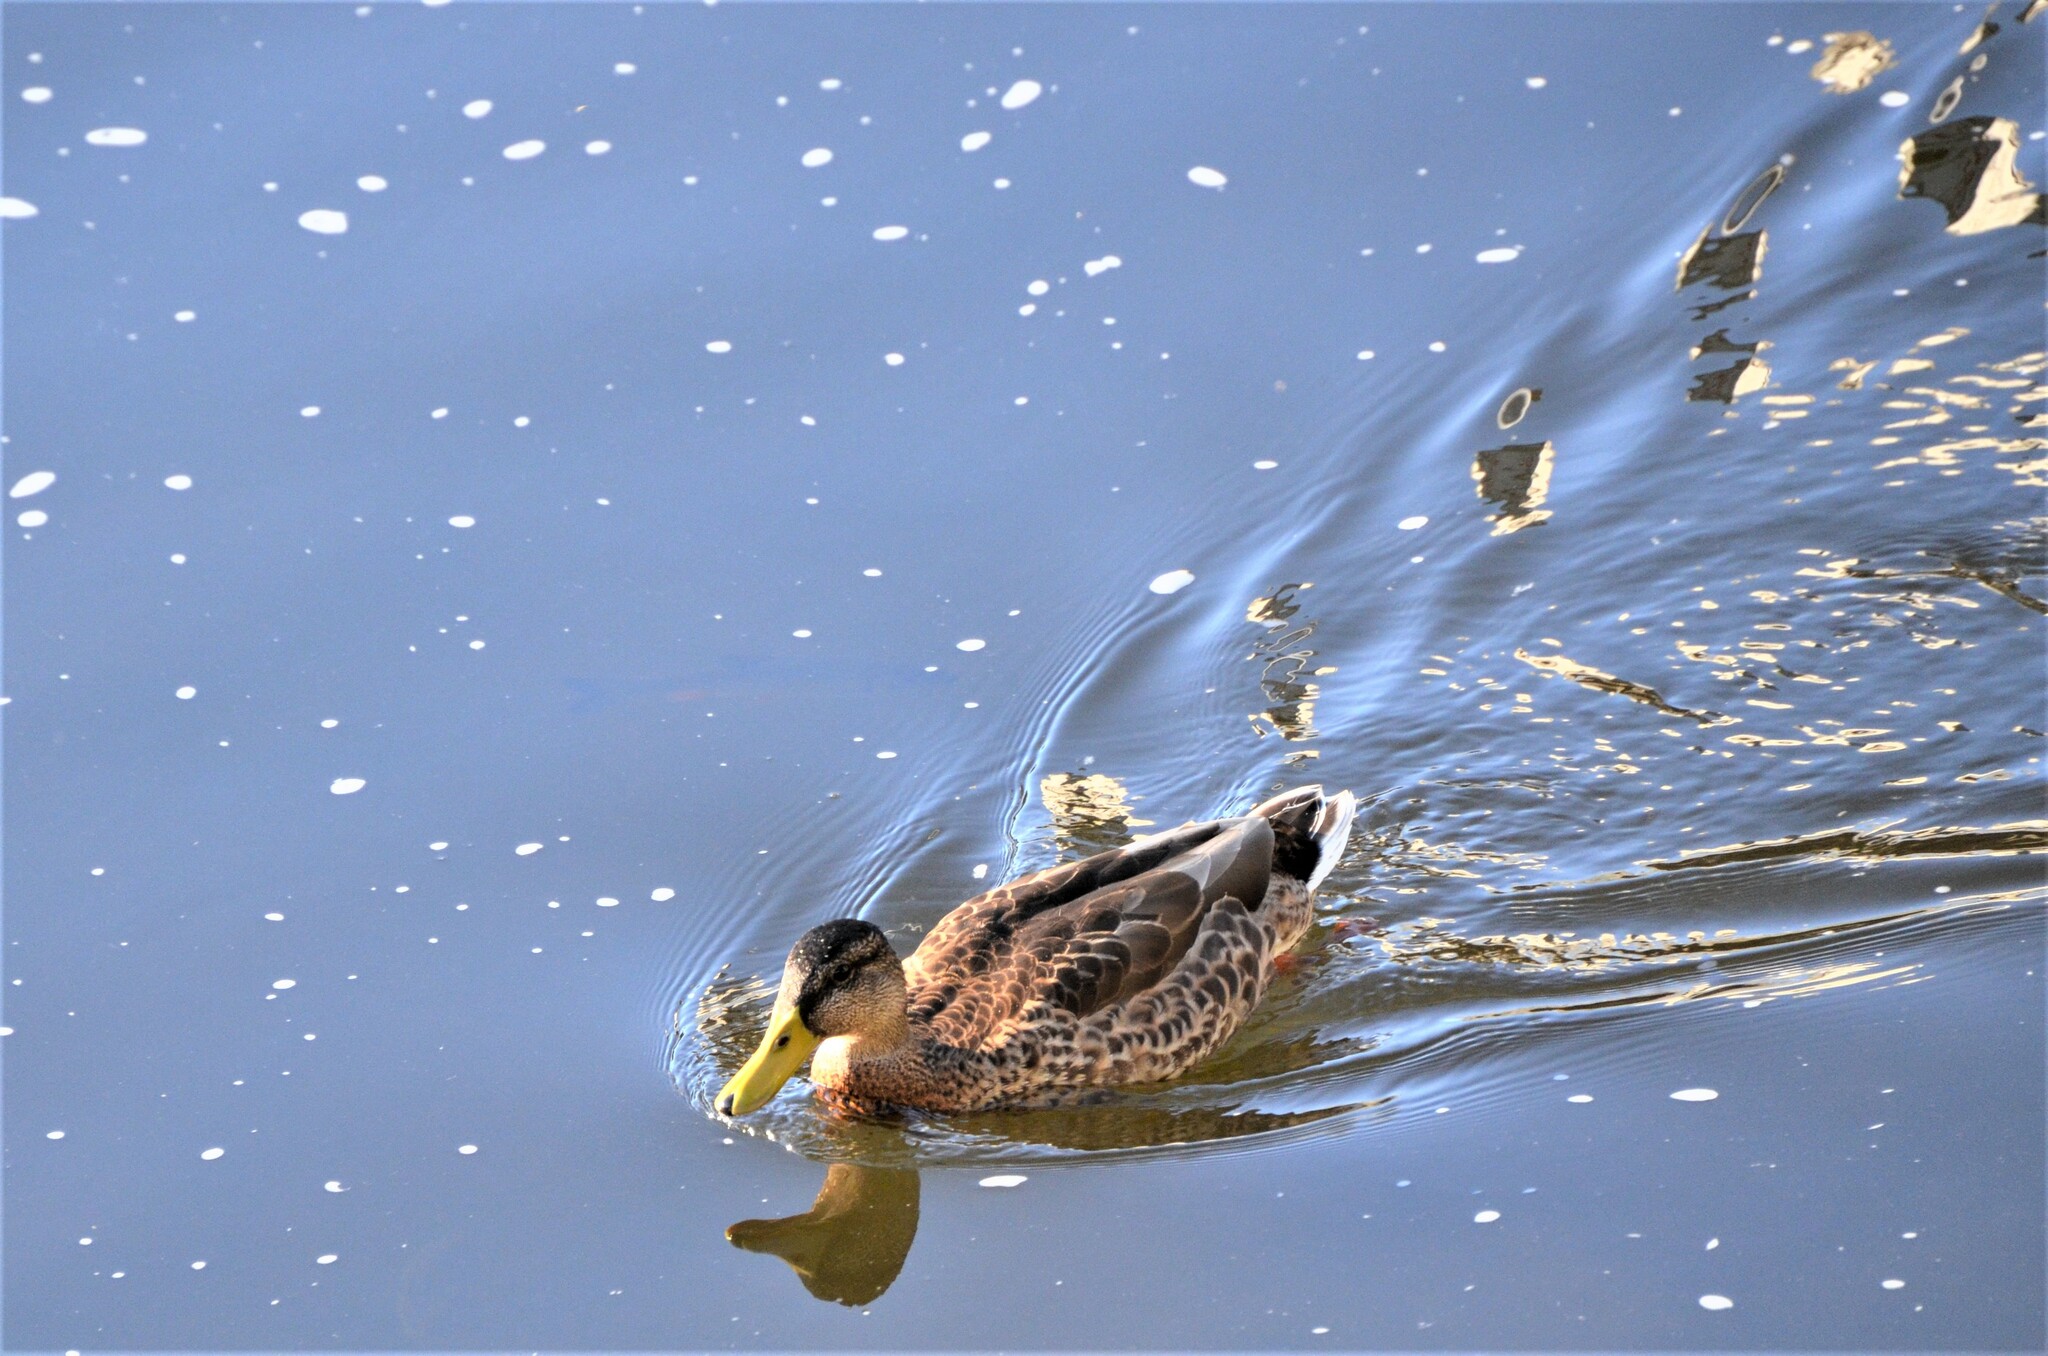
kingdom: Animalia
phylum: Chordata
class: Aves
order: Anseriformes
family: Anatidae
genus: Anas
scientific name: Anas platyrhynchos
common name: Mallard
